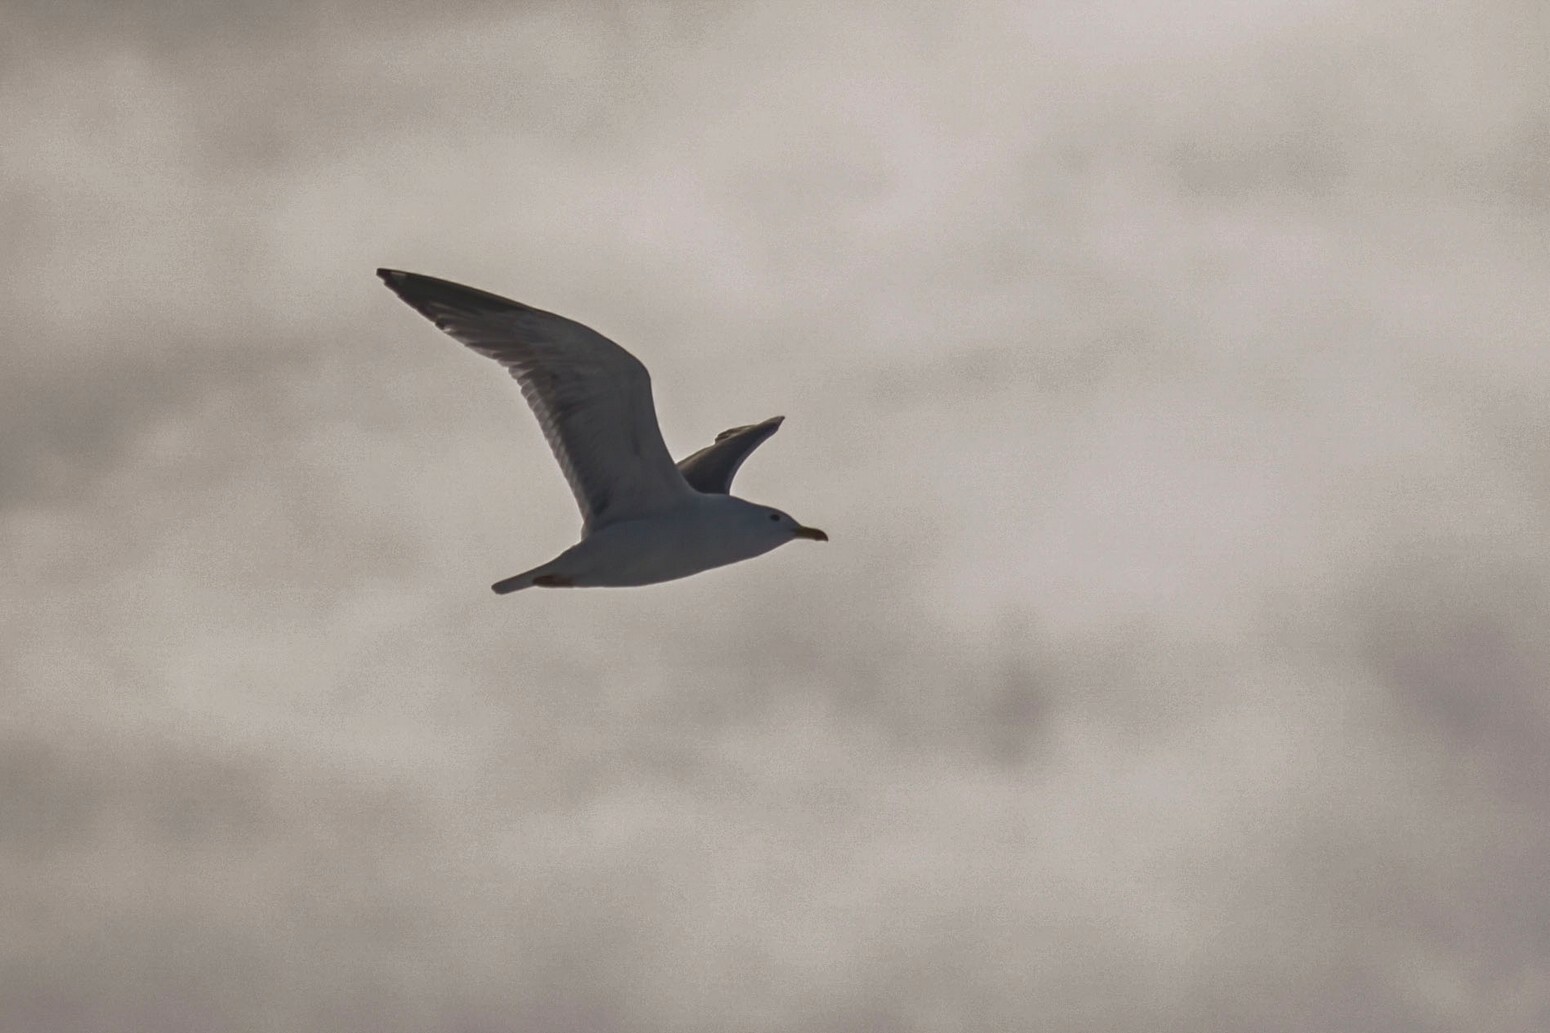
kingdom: Animalia
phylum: Chordata
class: Aves
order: Charadriiformes
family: Laridae
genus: Larus
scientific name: Larus argentatus
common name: Herring gull
